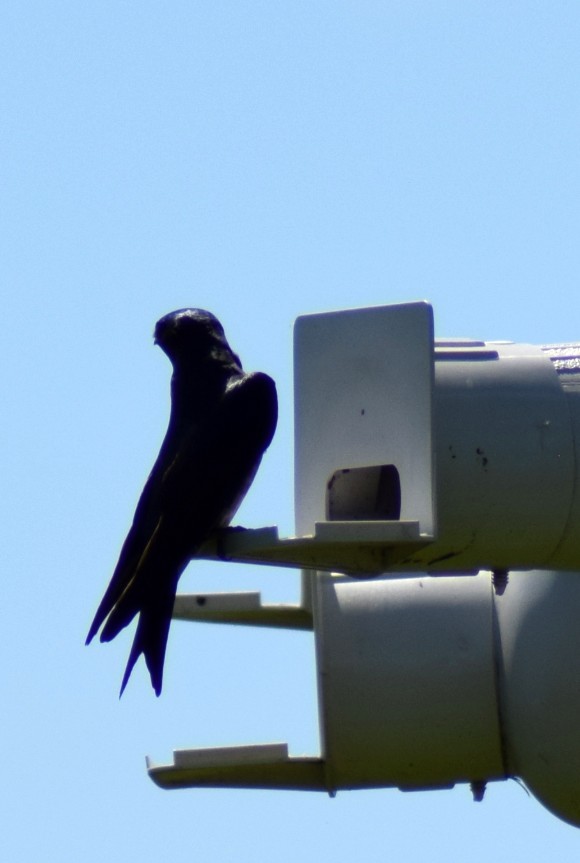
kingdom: Animalia
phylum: Chordata
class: Aves
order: Passeriformes
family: Hirundinidae
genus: Progne
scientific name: Progne subis
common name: Purple martin
